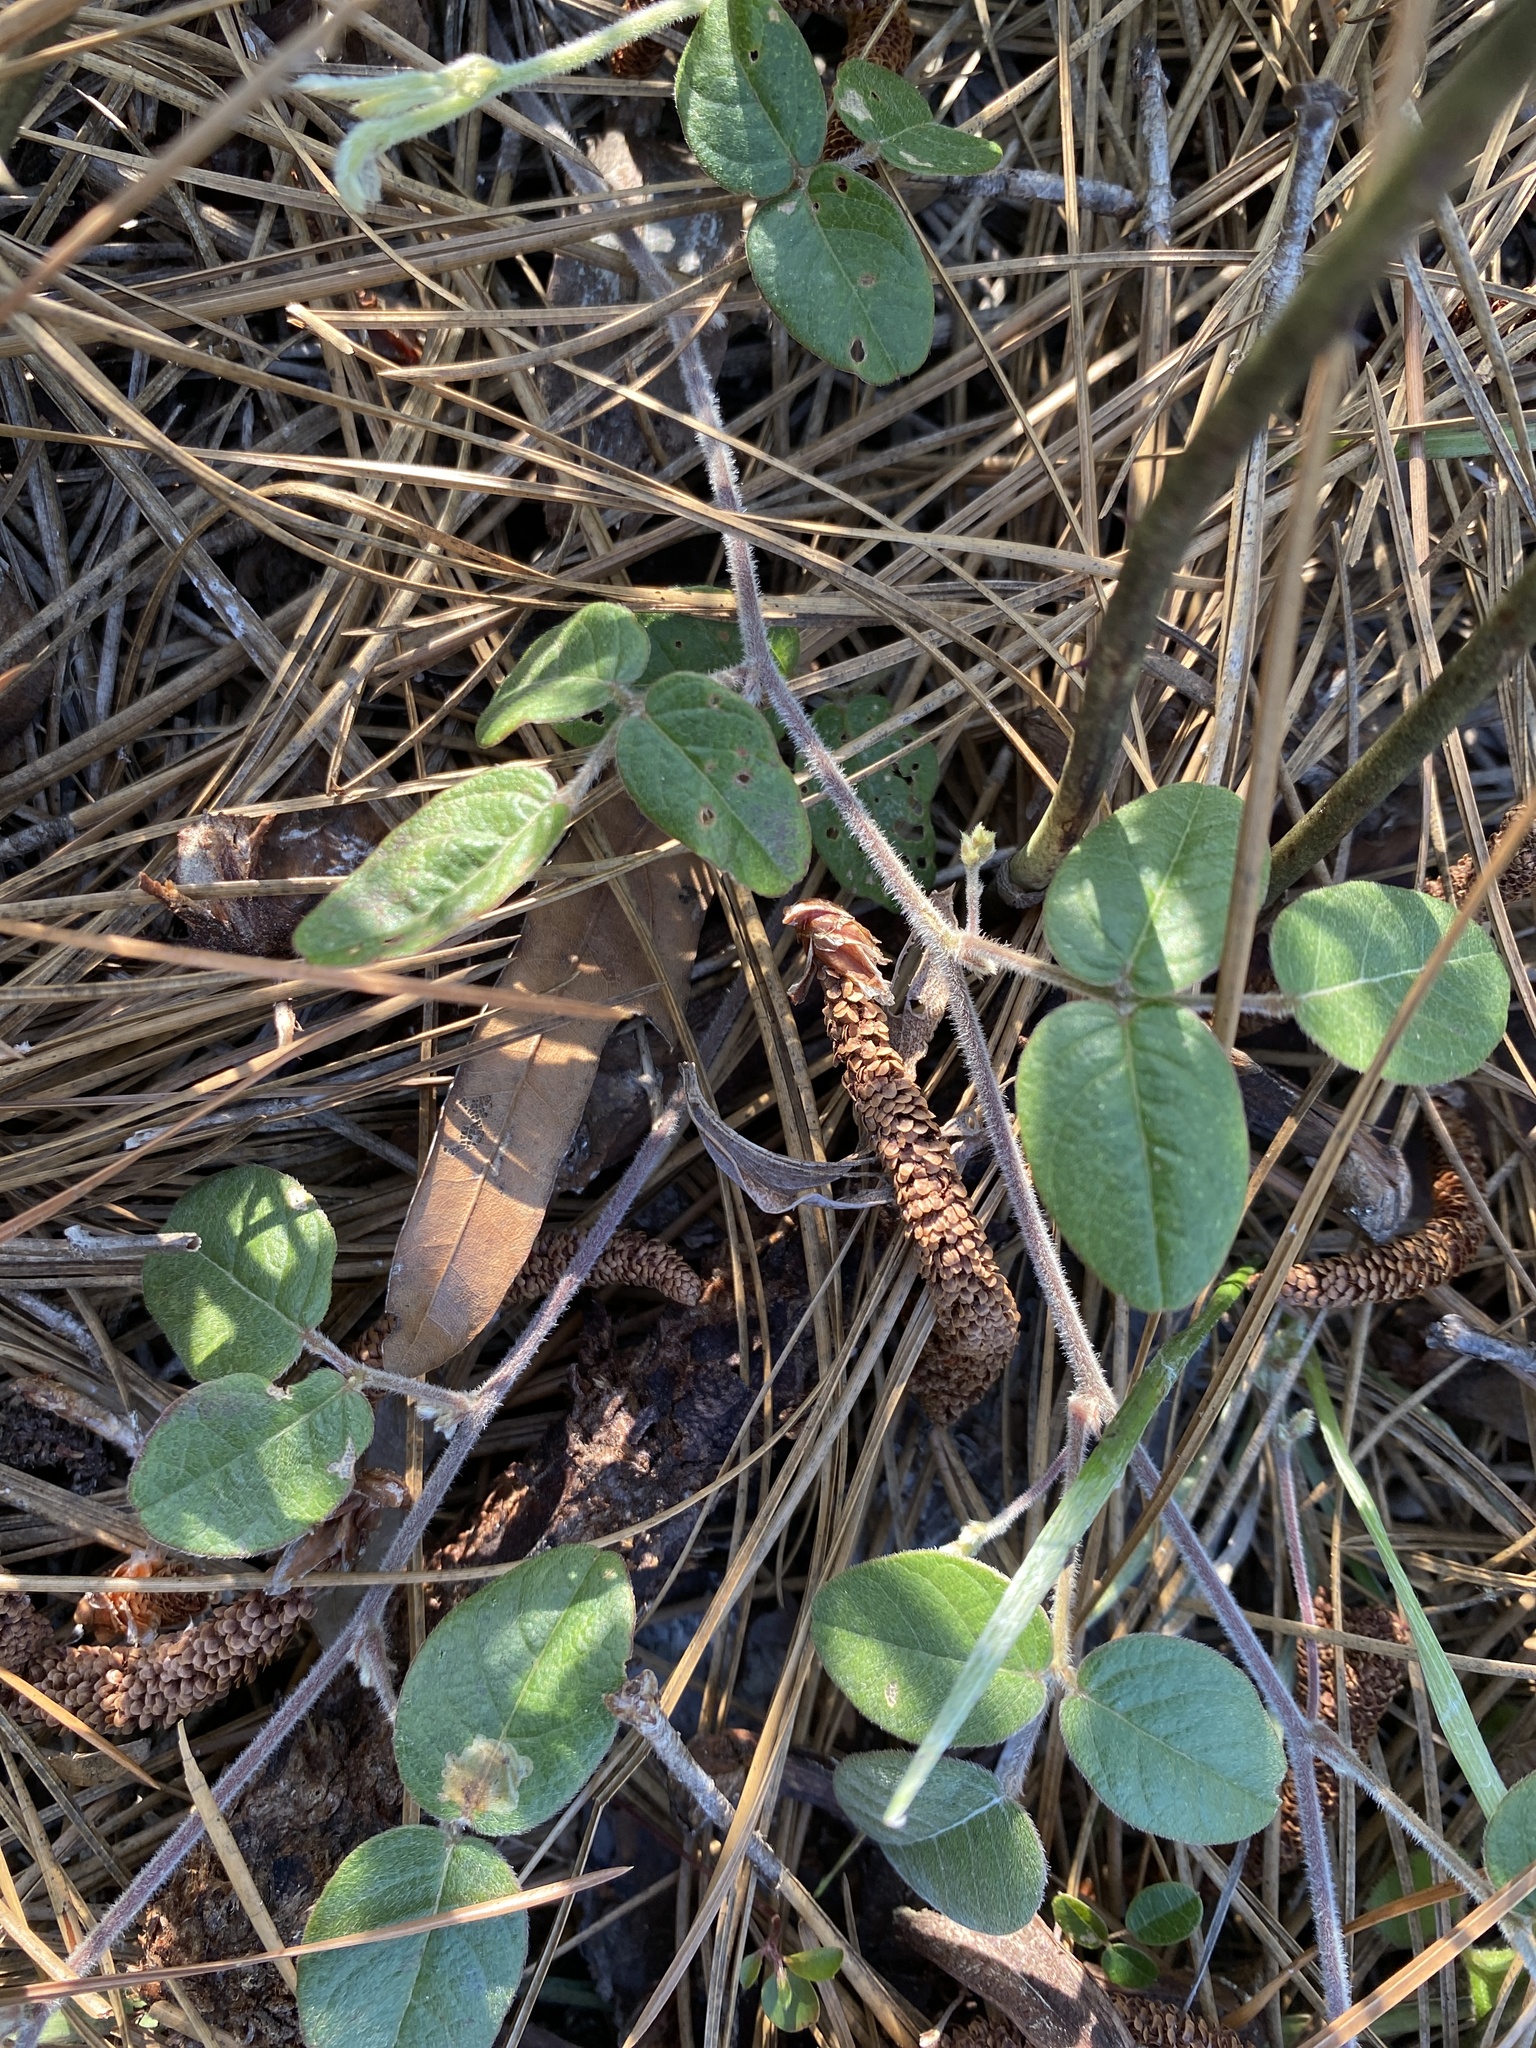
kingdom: Plantae
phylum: Tracheophyta
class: Magnoliopsida
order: Fabales
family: Fabaceae
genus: Galactia
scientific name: Galactia mollis
